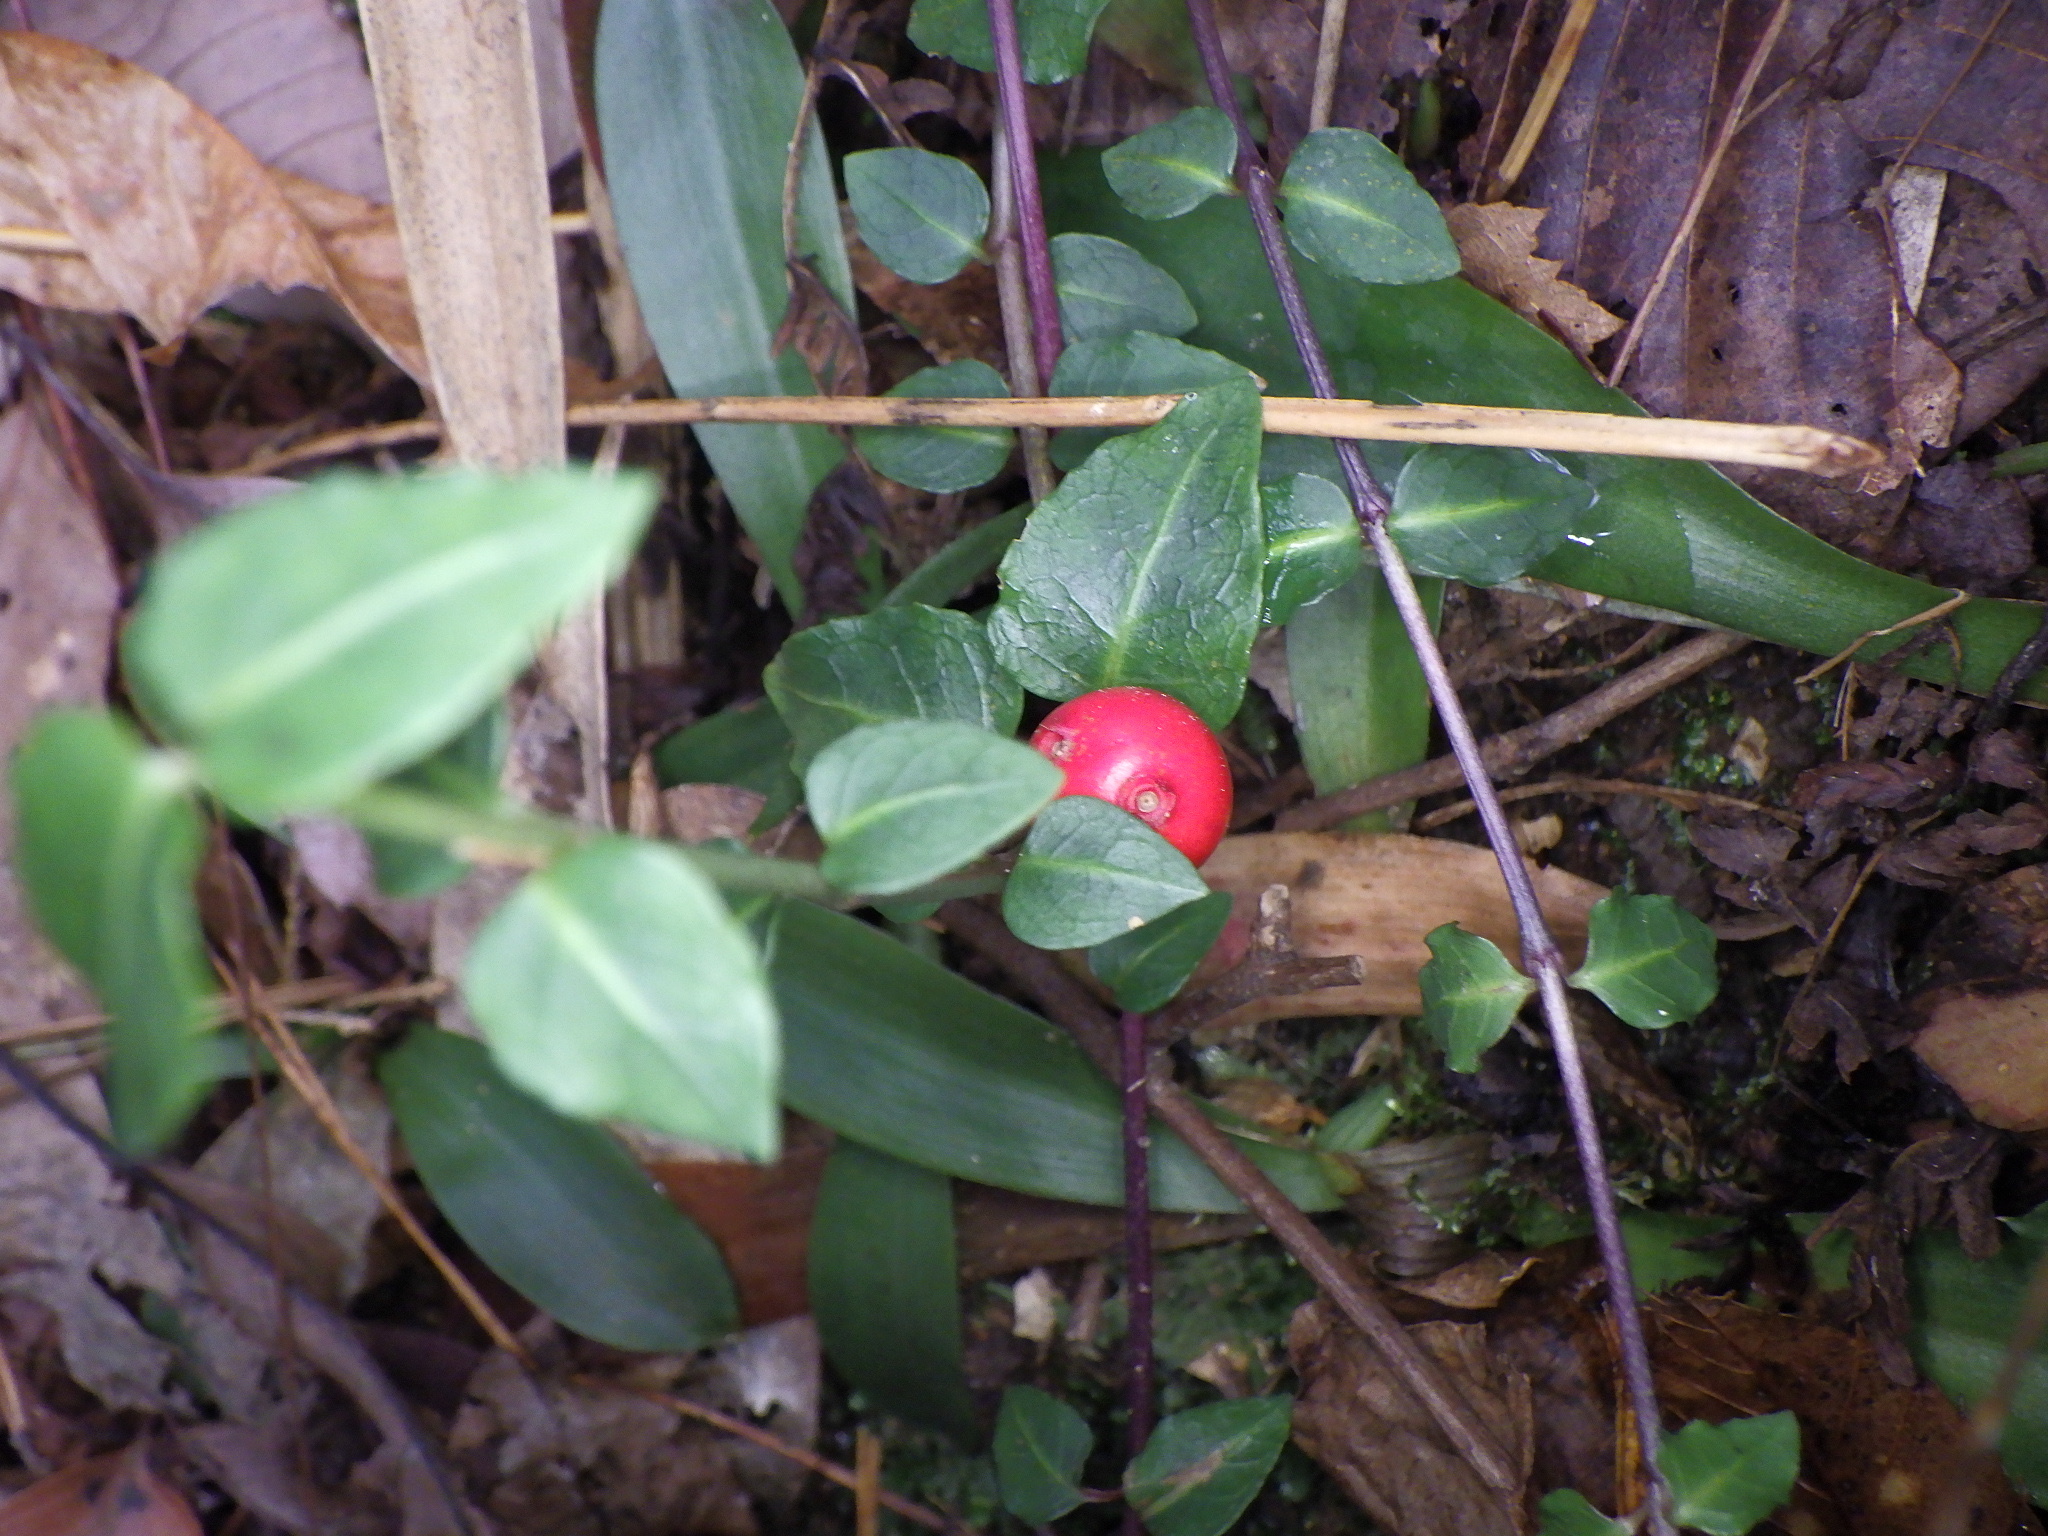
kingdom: Plantae
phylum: Tracheophyta
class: Magnoliopsida
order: Gentianales
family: Rubiaceae
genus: Mitchella
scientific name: Mitchella undulata
